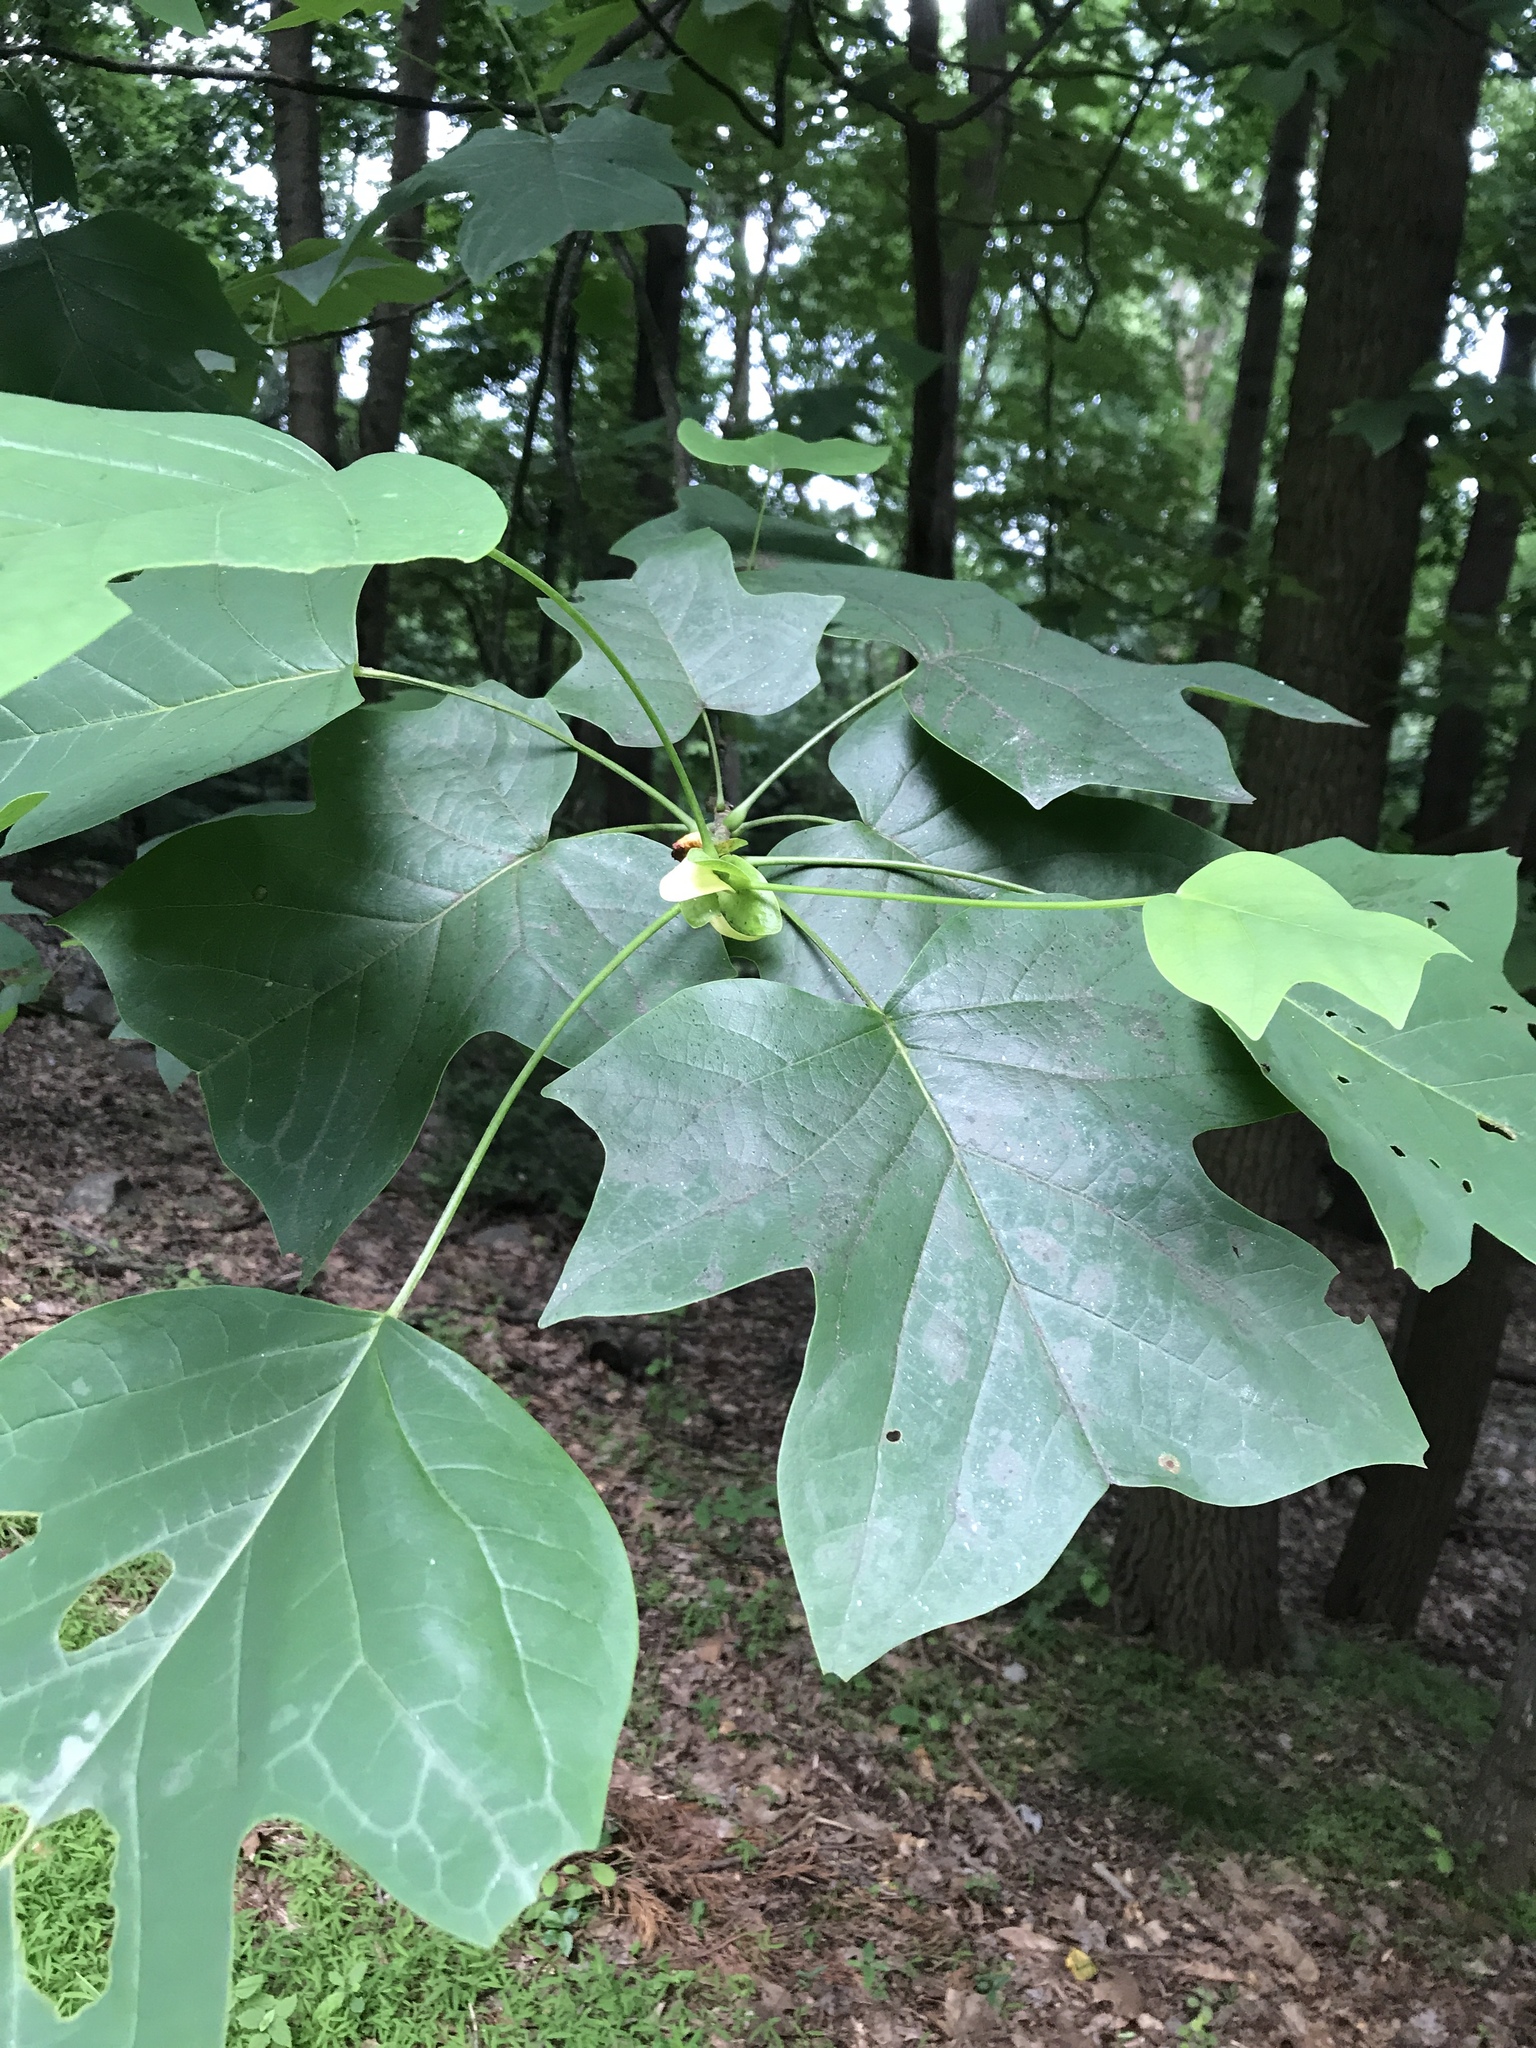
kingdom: Plantae
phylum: Tracheophyta
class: Magnoliopsida
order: Magnoliales
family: Magnoliaceae
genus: Liriodendron
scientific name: Liriodendron tulipifera
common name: Tulip tree
